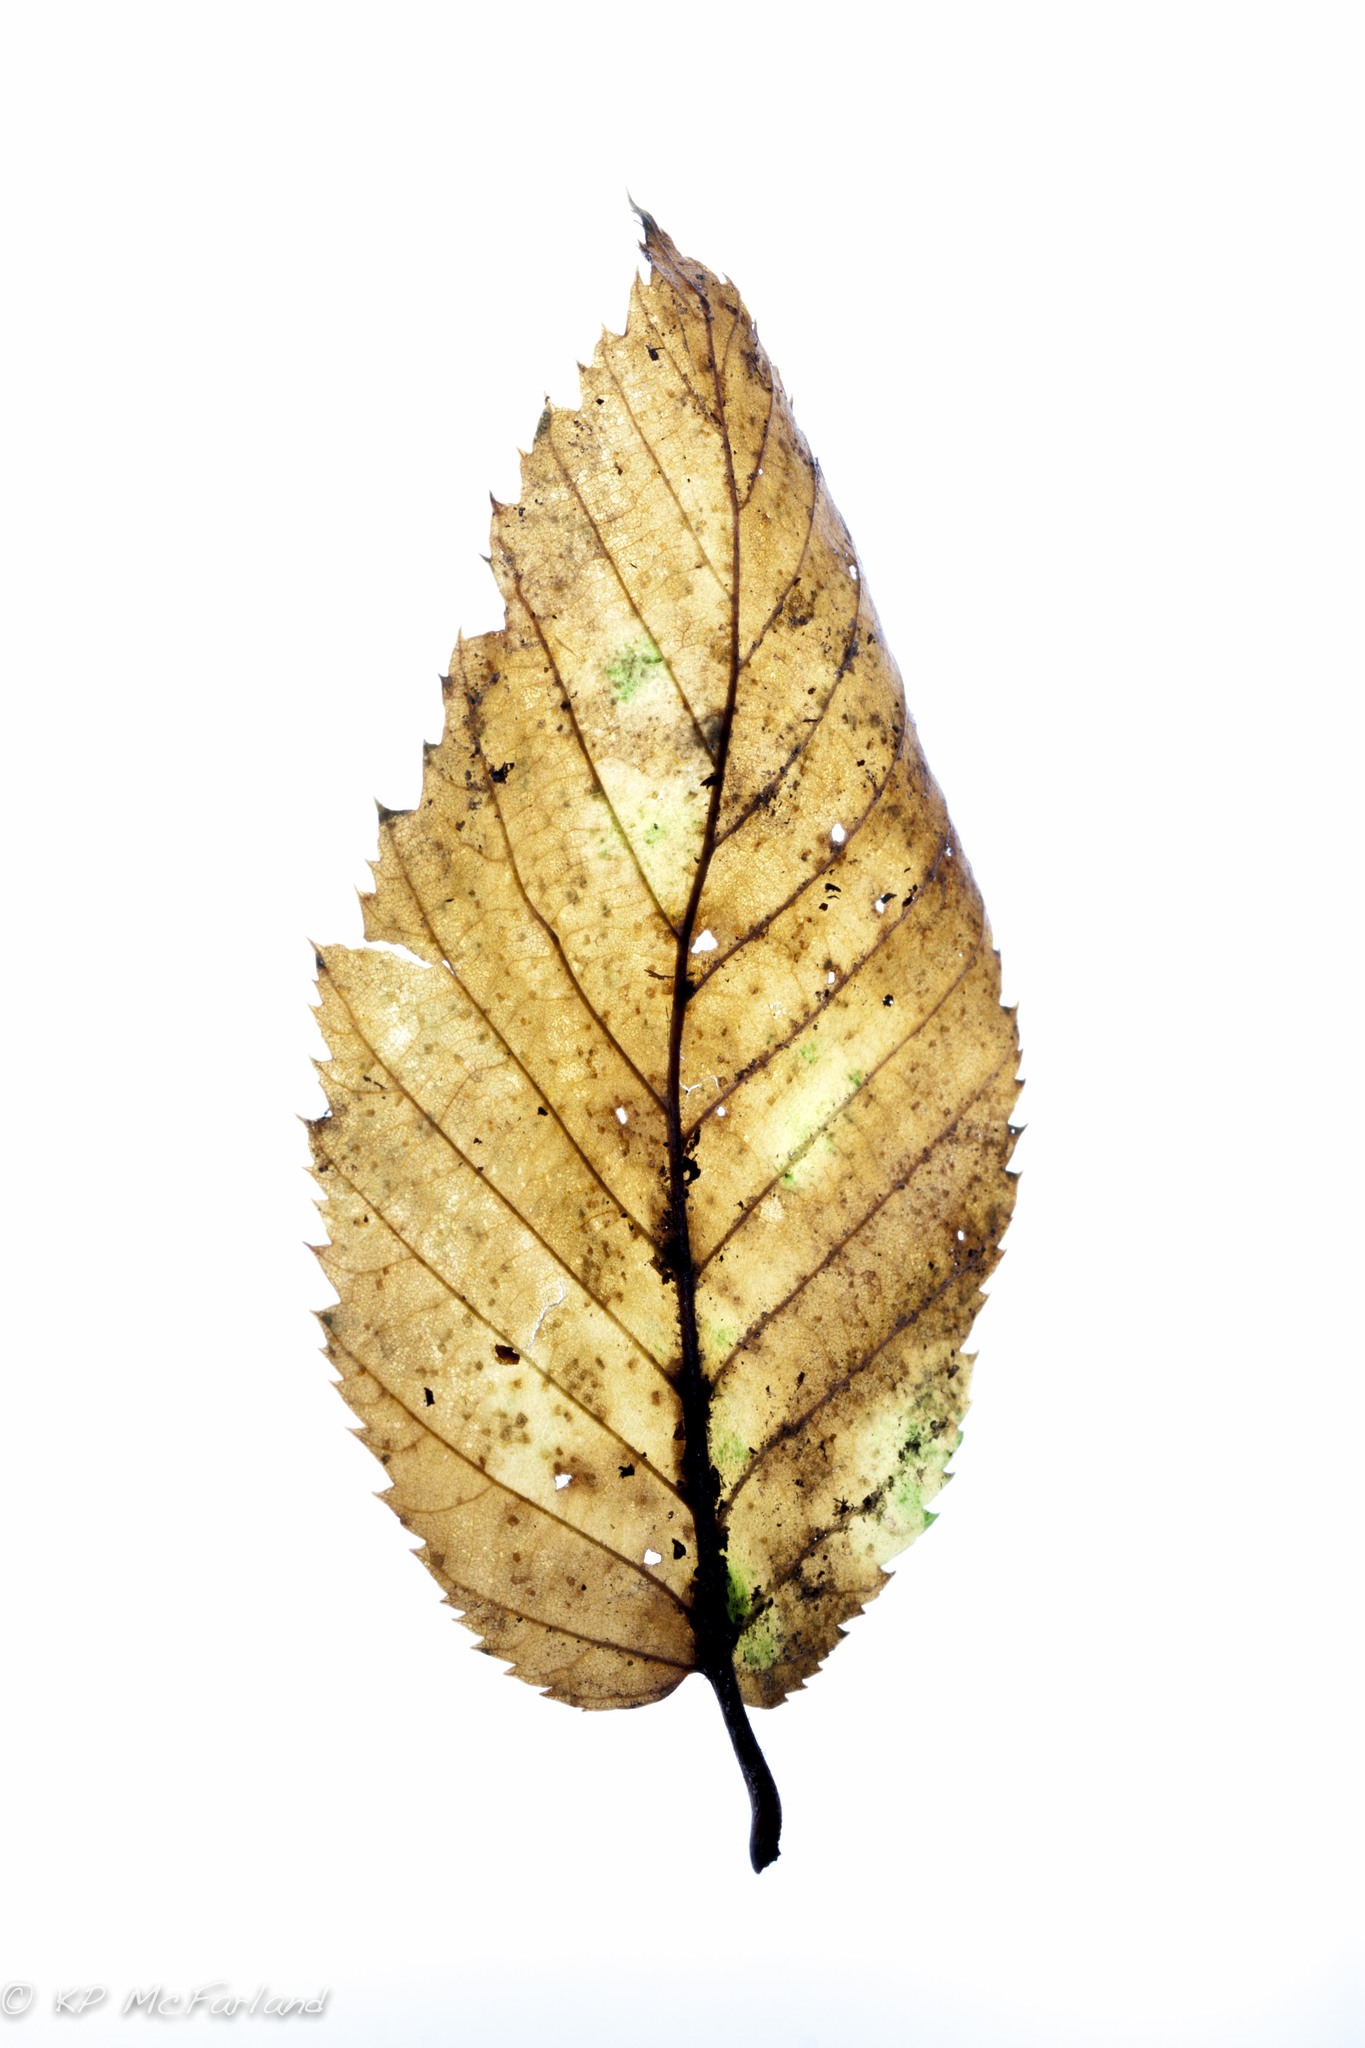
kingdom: Plantae
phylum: Tracheophyta
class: Magnoliopsida
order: Fagales
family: Betulaceae
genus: Ostrya
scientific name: Ostrya virginiana
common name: Ironwood
